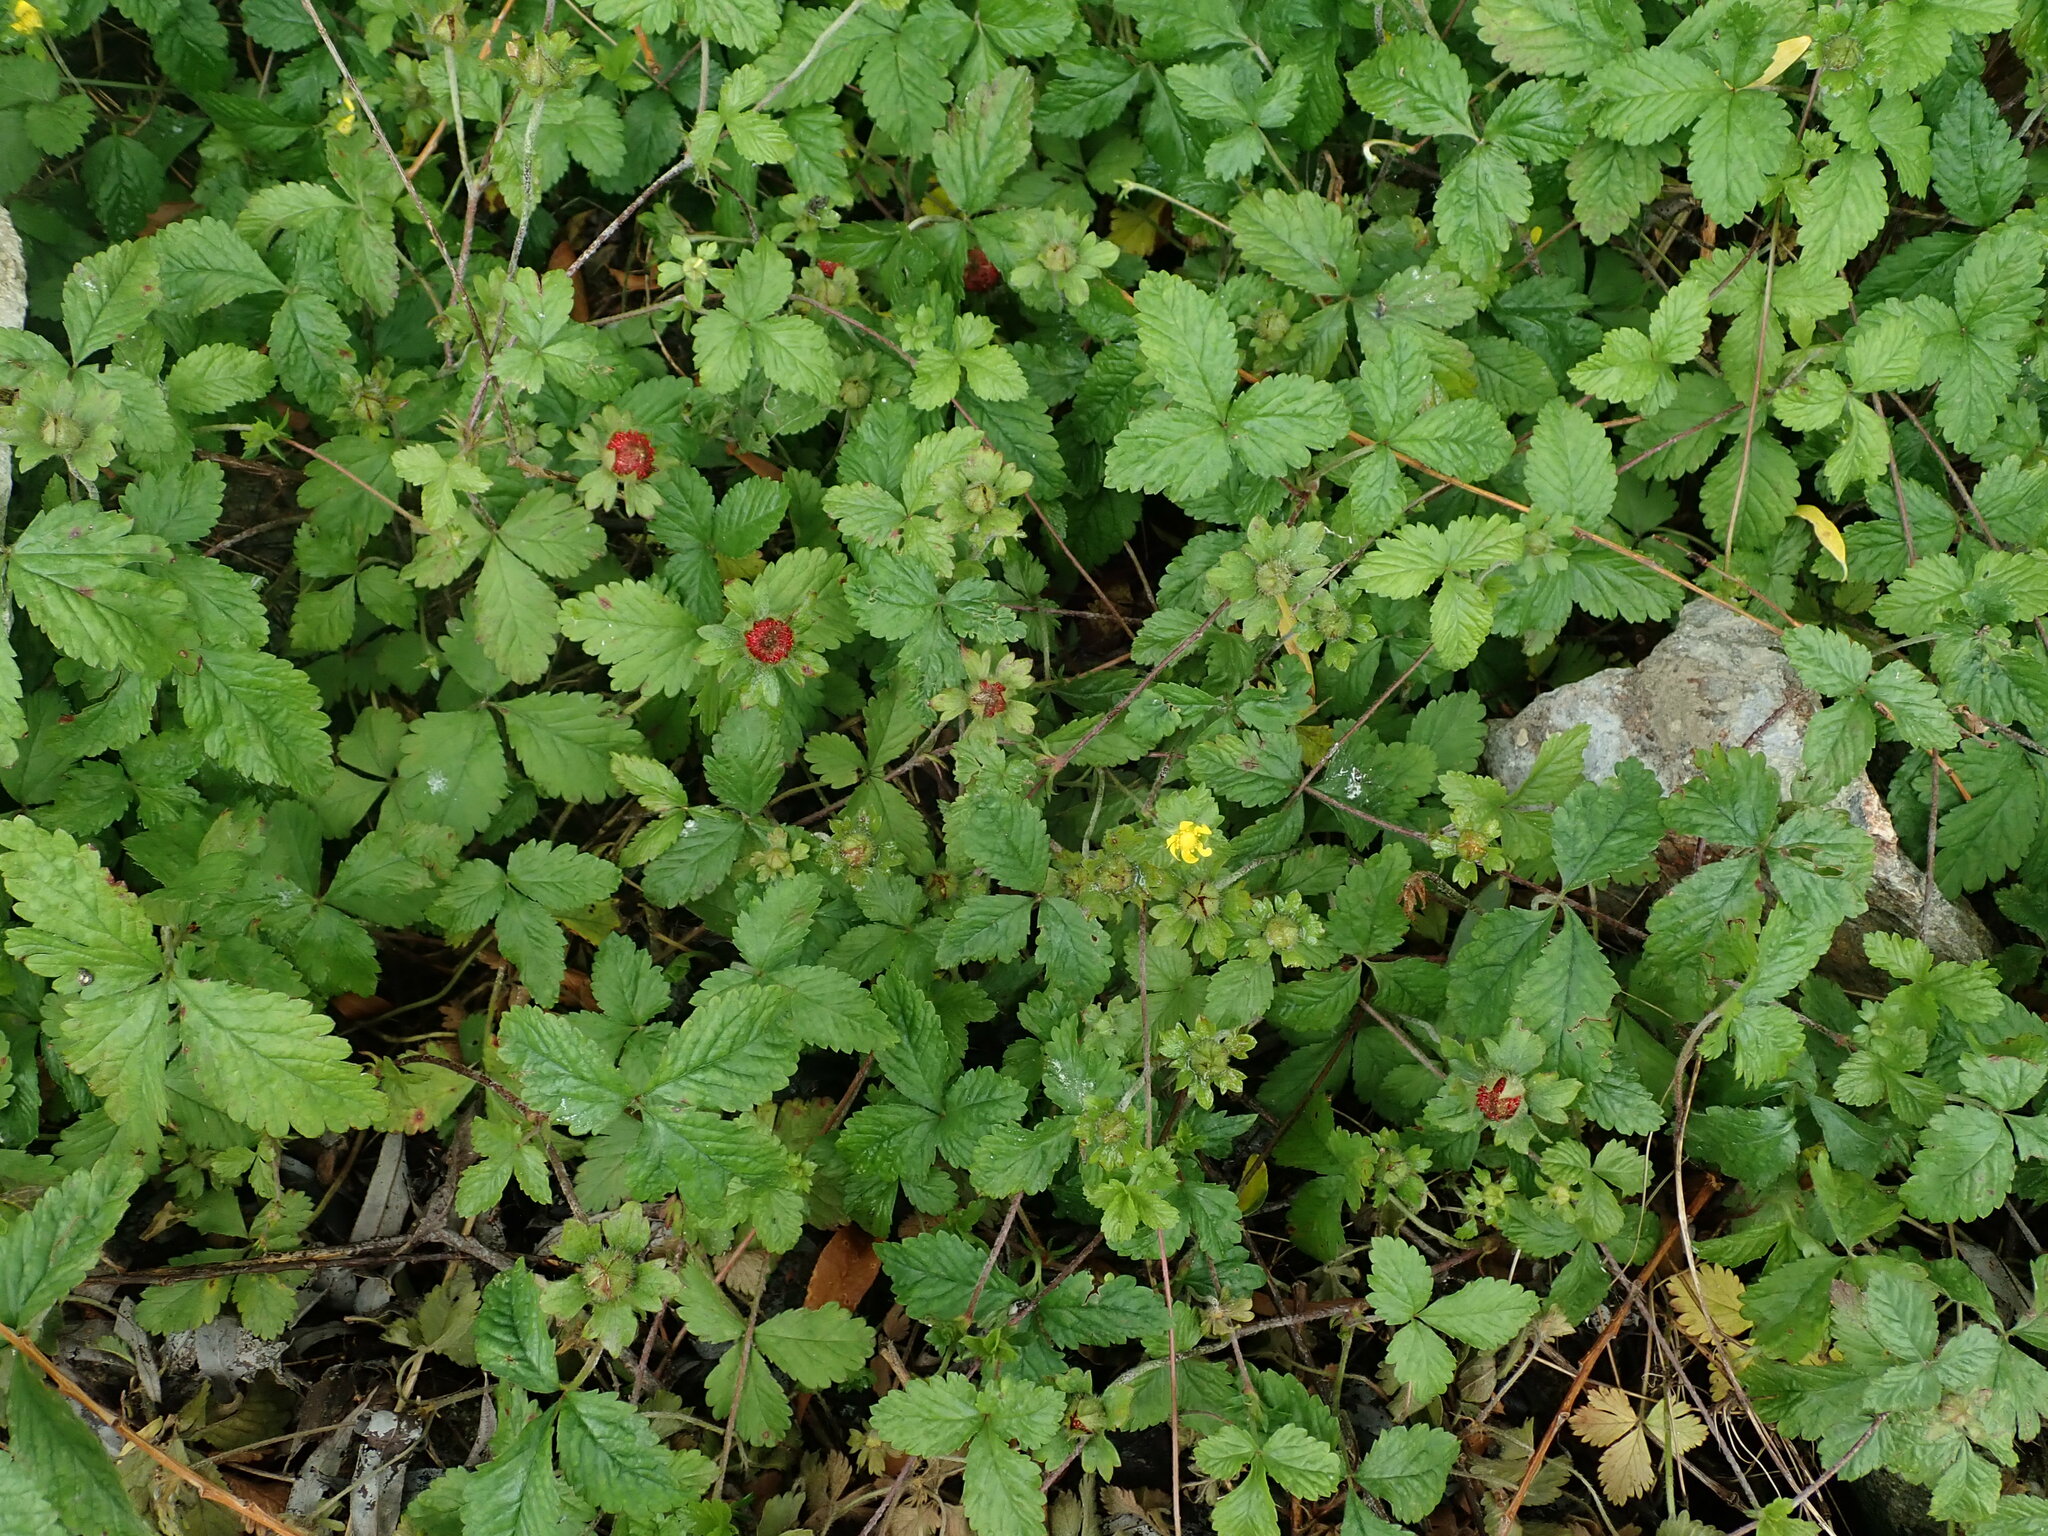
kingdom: Plantae
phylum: Tracheophyta
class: Magnoliopsida
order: Rosales
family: Rosaceae
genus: Potentilla
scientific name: Potentilla indica
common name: Yellow-flowered strawberry
